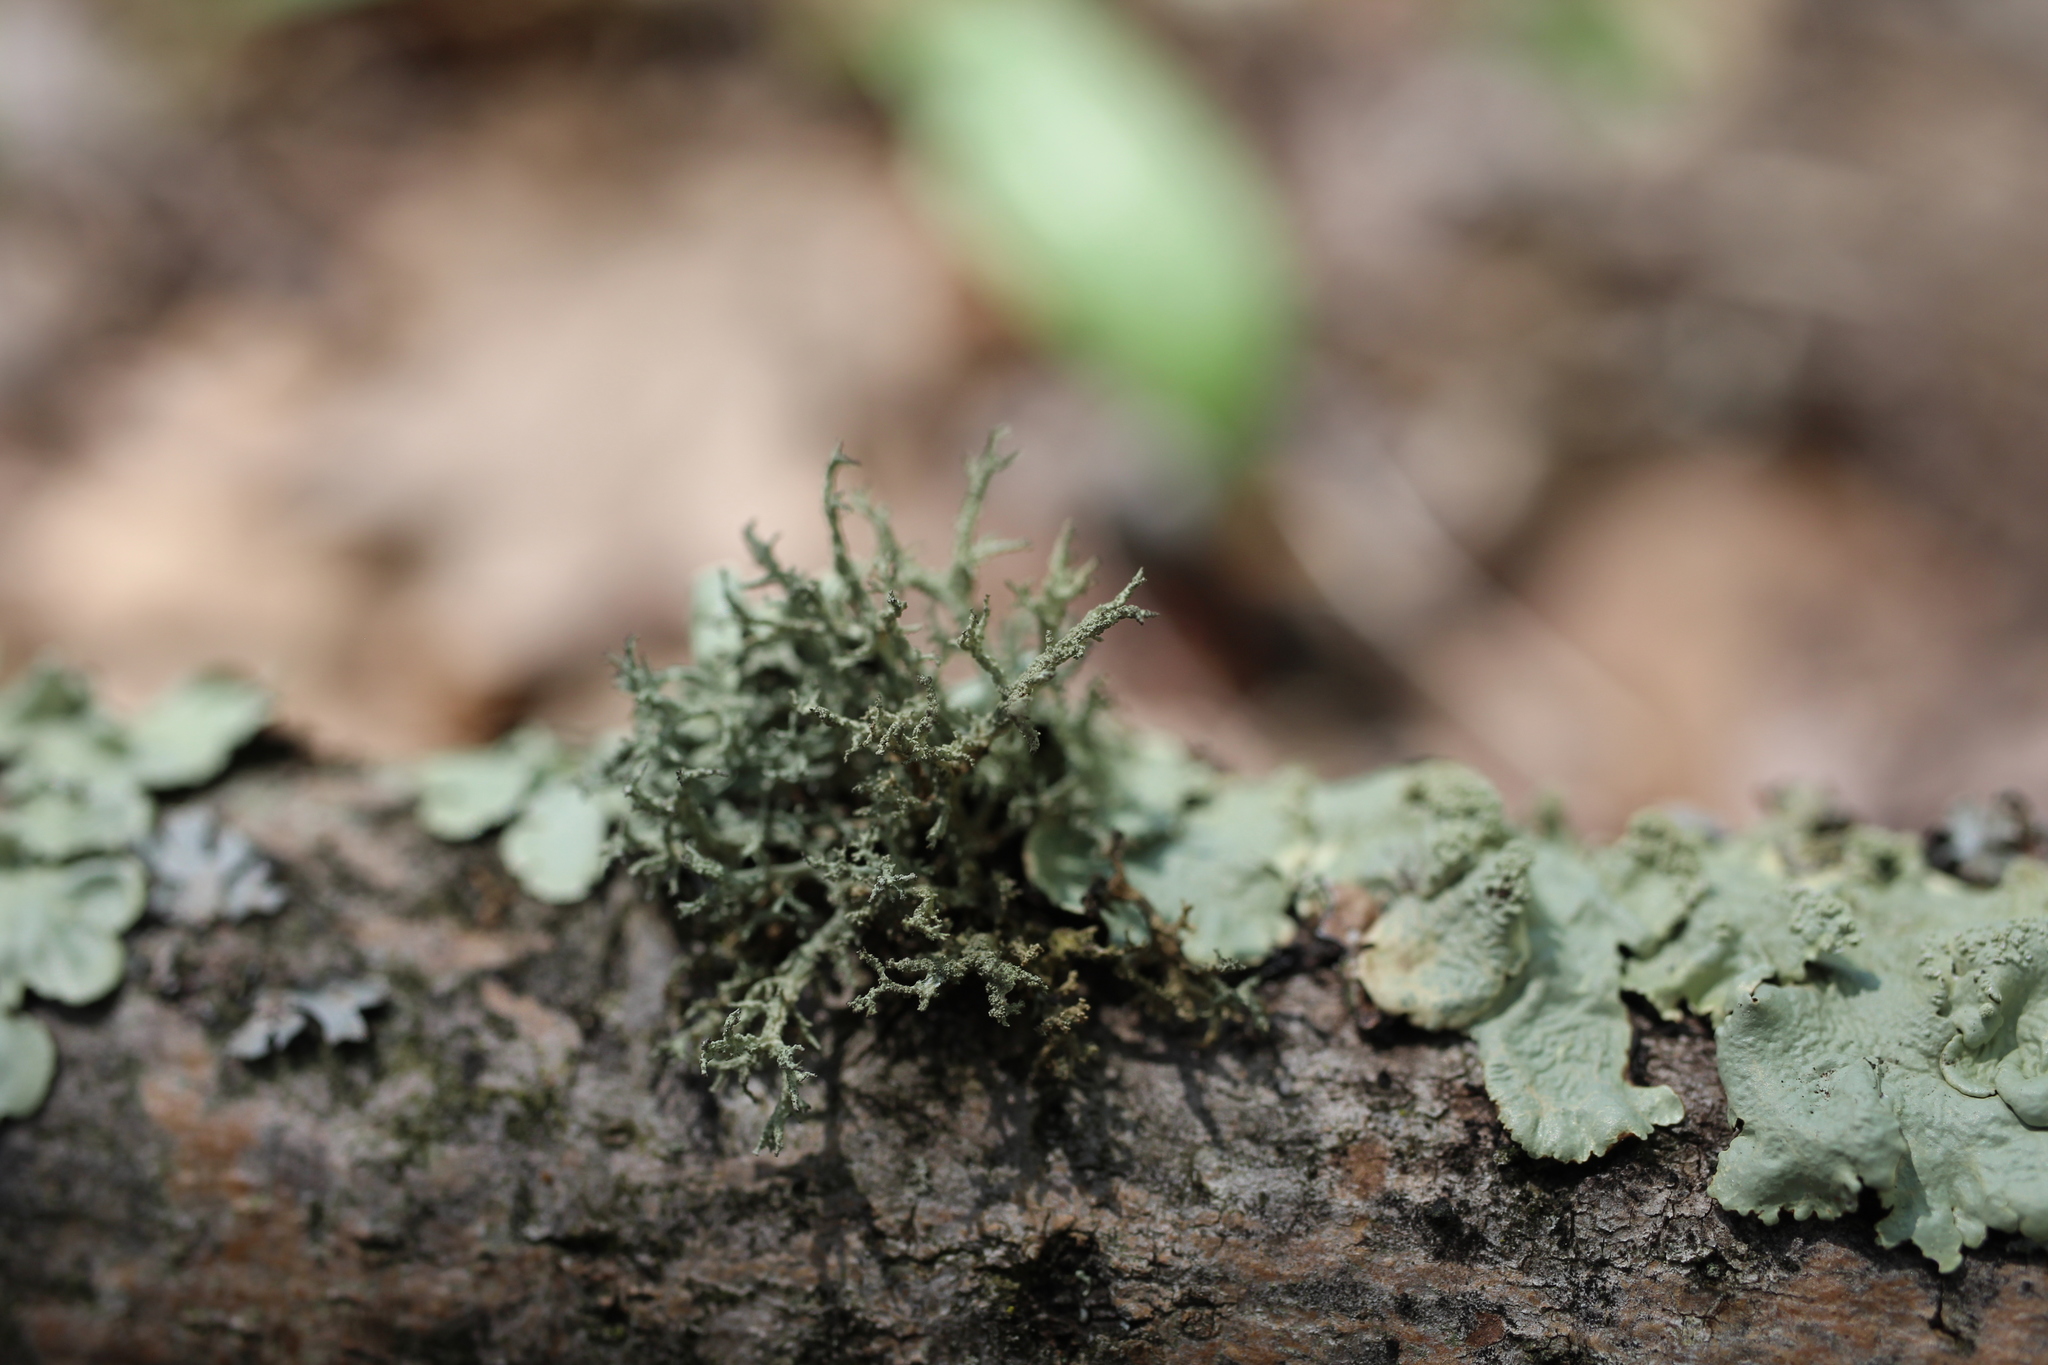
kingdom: Fungi
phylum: Ascomycota
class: Lecanoromycetes
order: Lecanorales
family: Parmeliaceae
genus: Evernia
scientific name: Evernia mesomorpha
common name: Boreal oak moss lichen
